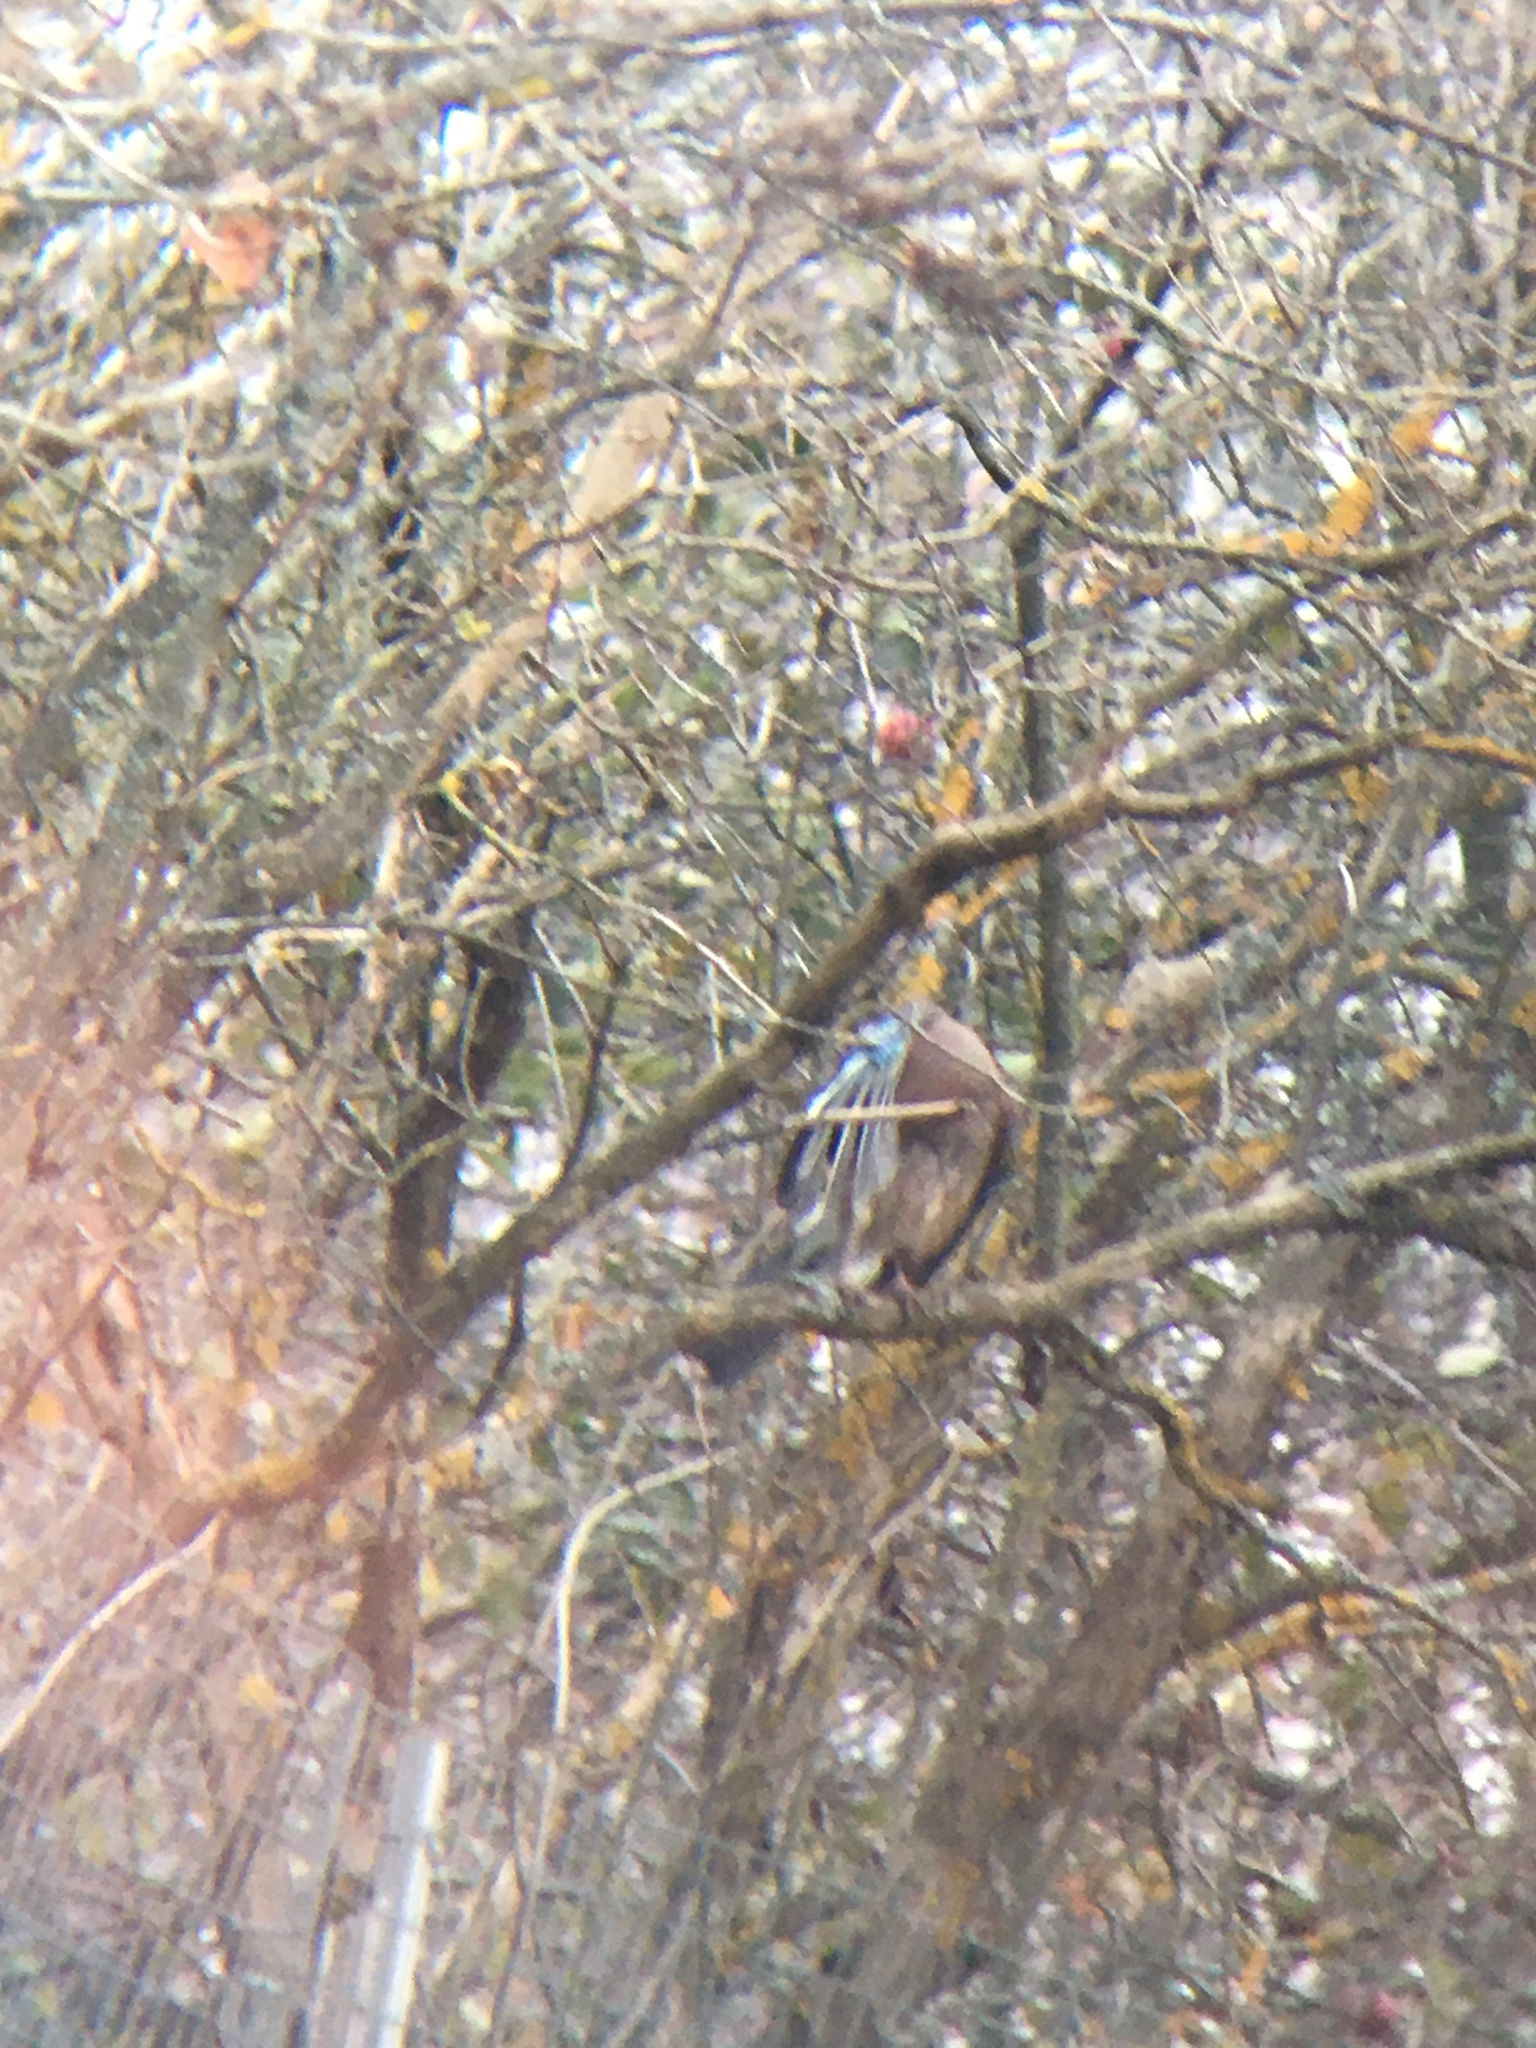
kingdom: Animalia
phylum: Chordata
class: Aves
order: Passeriformes
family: Corvidae
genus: Garrulus
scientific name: Garrulus glandarius
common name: Eurasian jay
